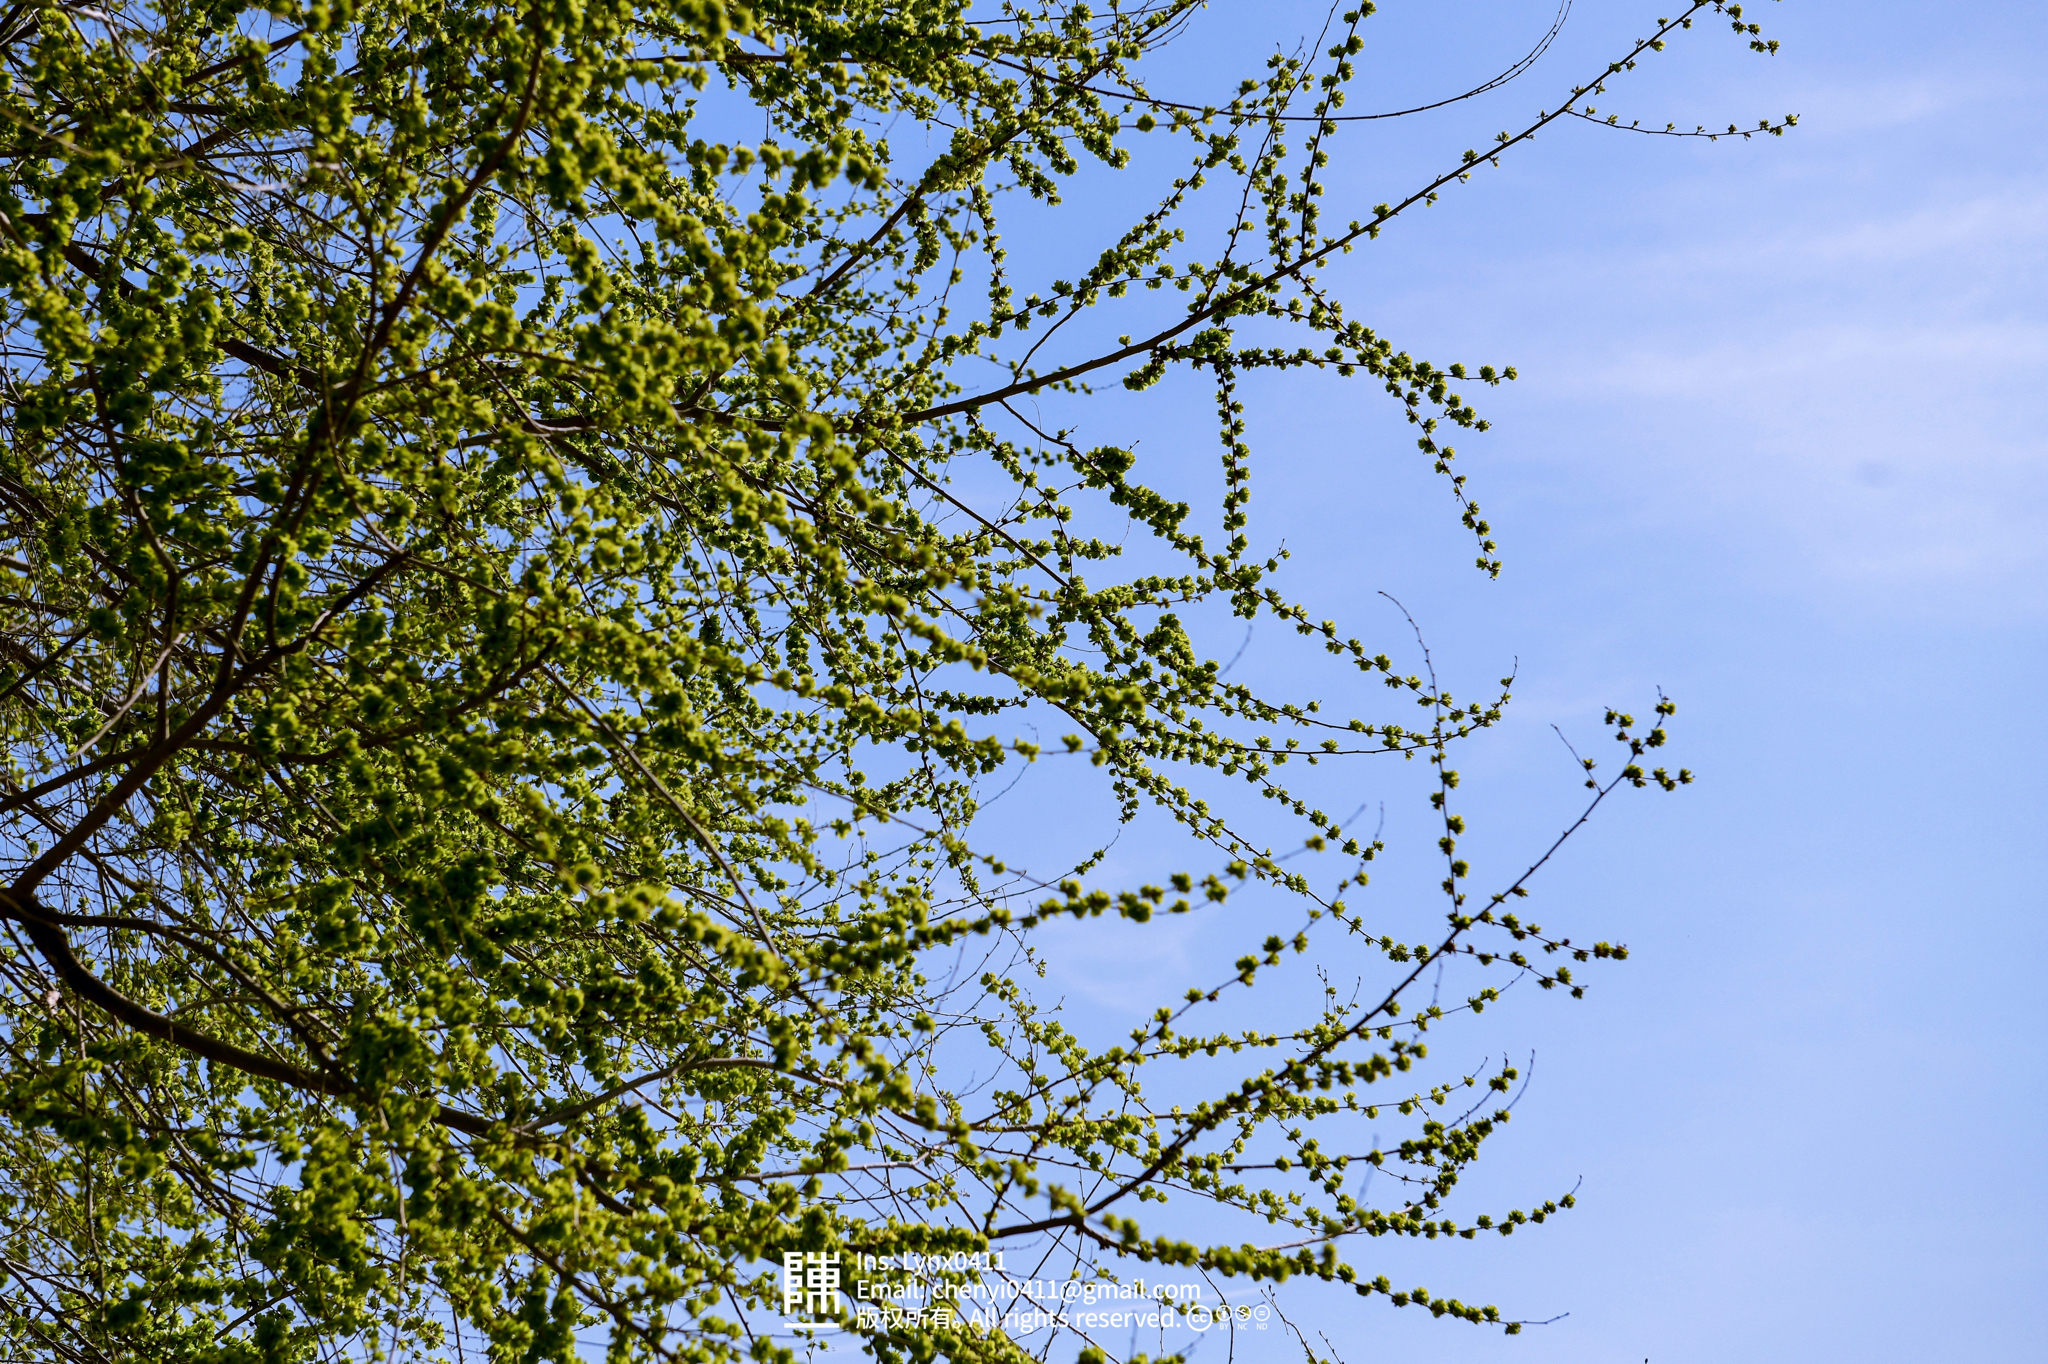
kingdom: Plantae
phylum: Tracheophyta
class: Magnoliopsida
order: Rosales
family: Ulmaceae
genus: Ulmus
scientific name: Ulmus pumila
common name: Siberian elm
